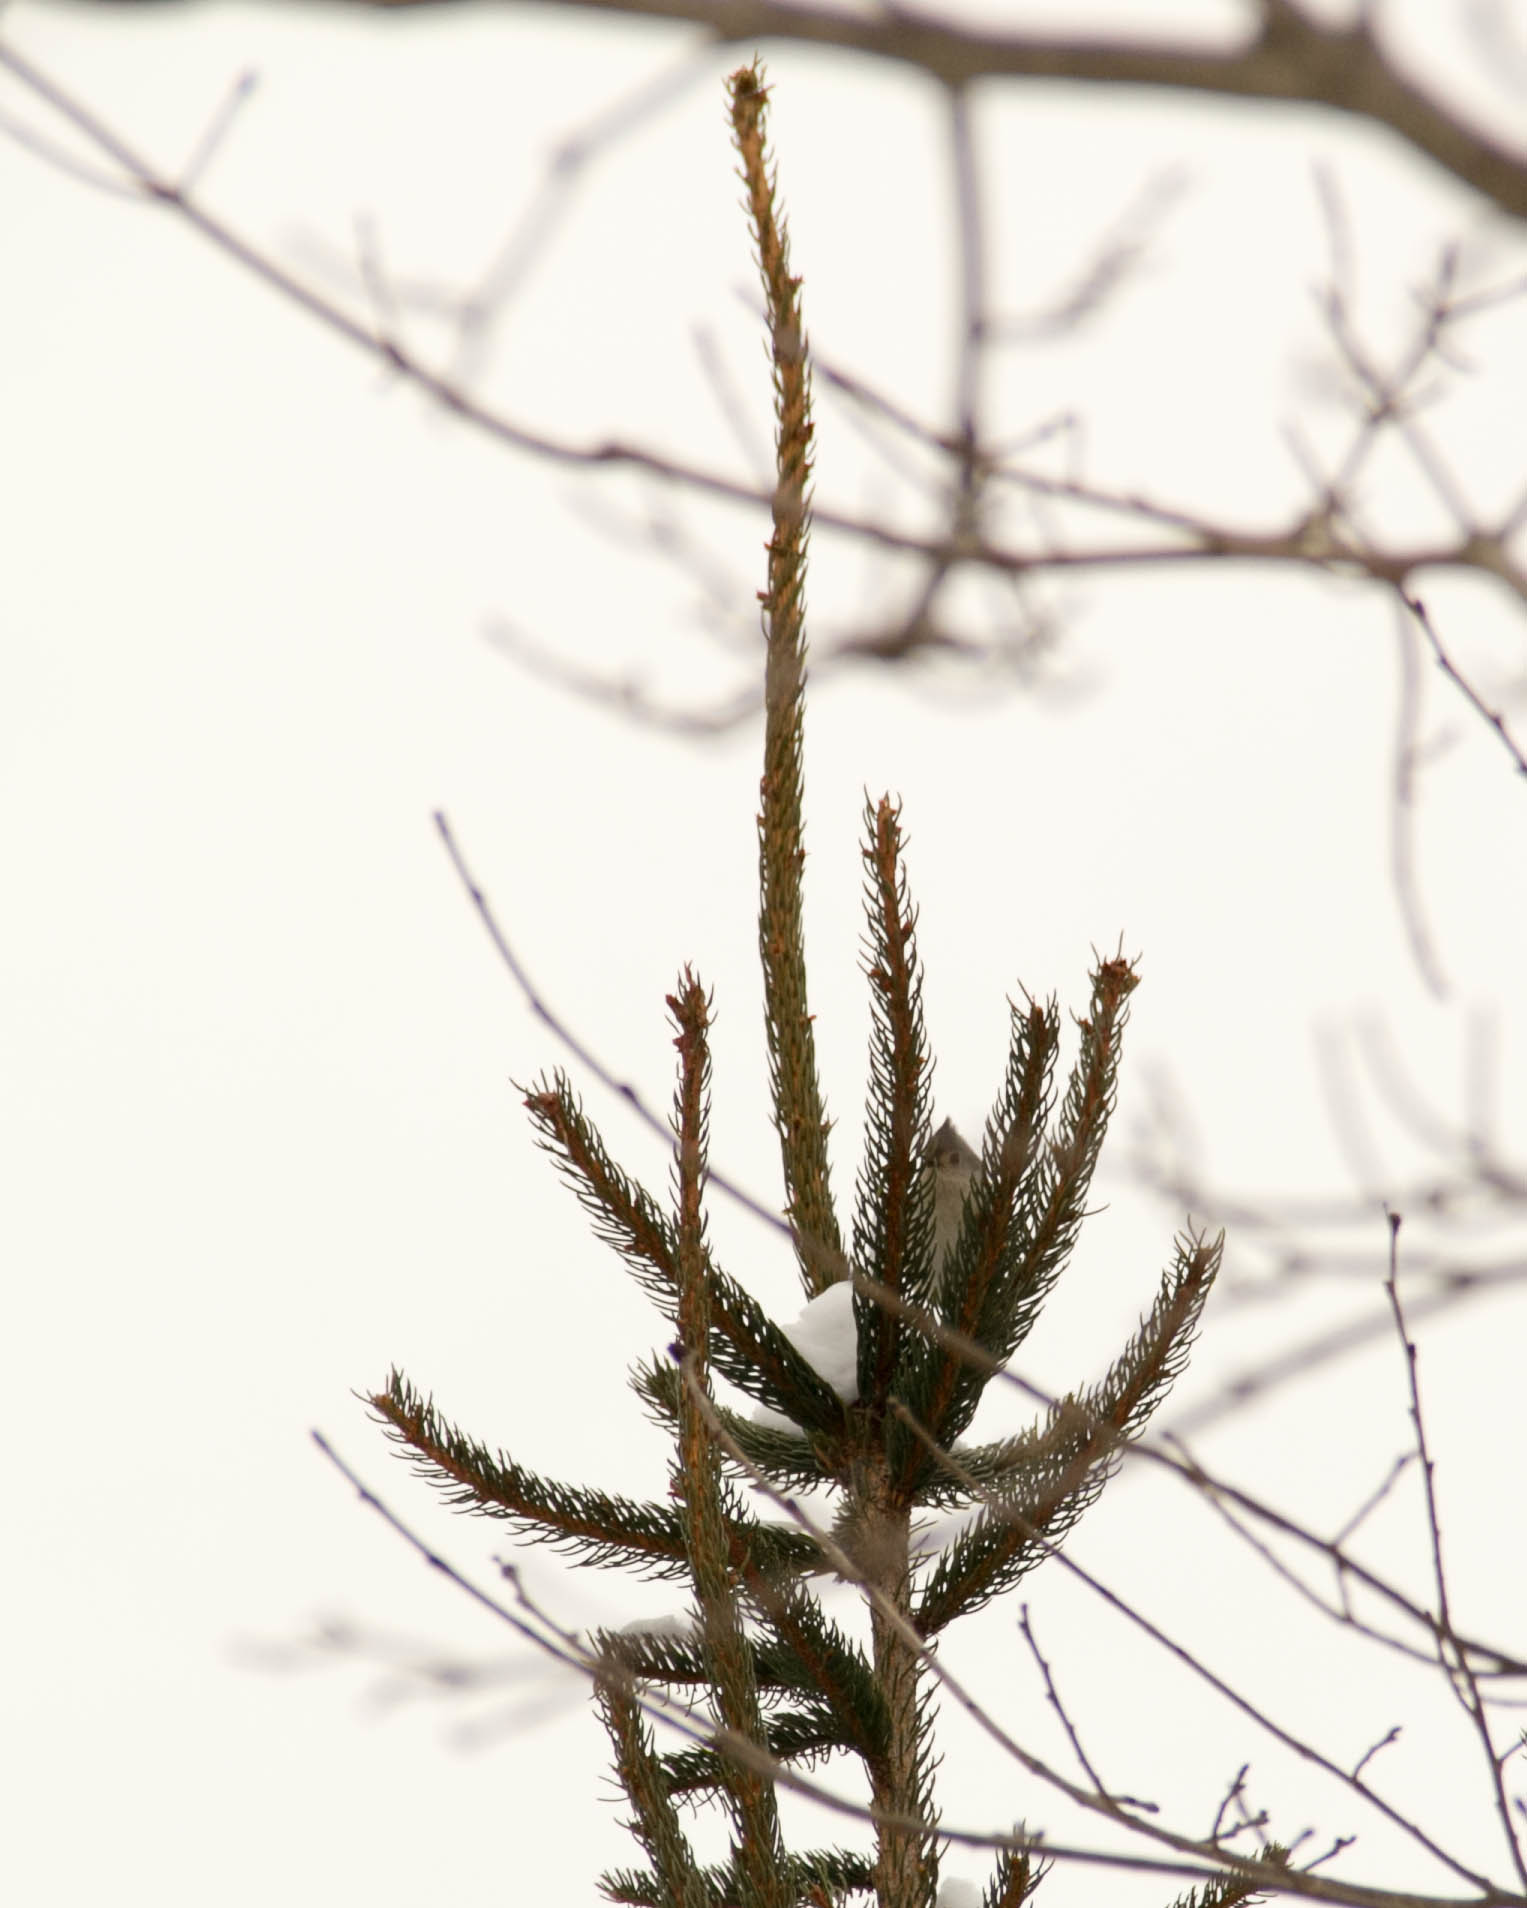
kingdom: Animalia
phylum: Chordata
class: Aves
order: Passeriformes
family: Paridae
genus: Baeolophus
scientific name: Baeolophus bicolor
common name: Tufted titmouse
